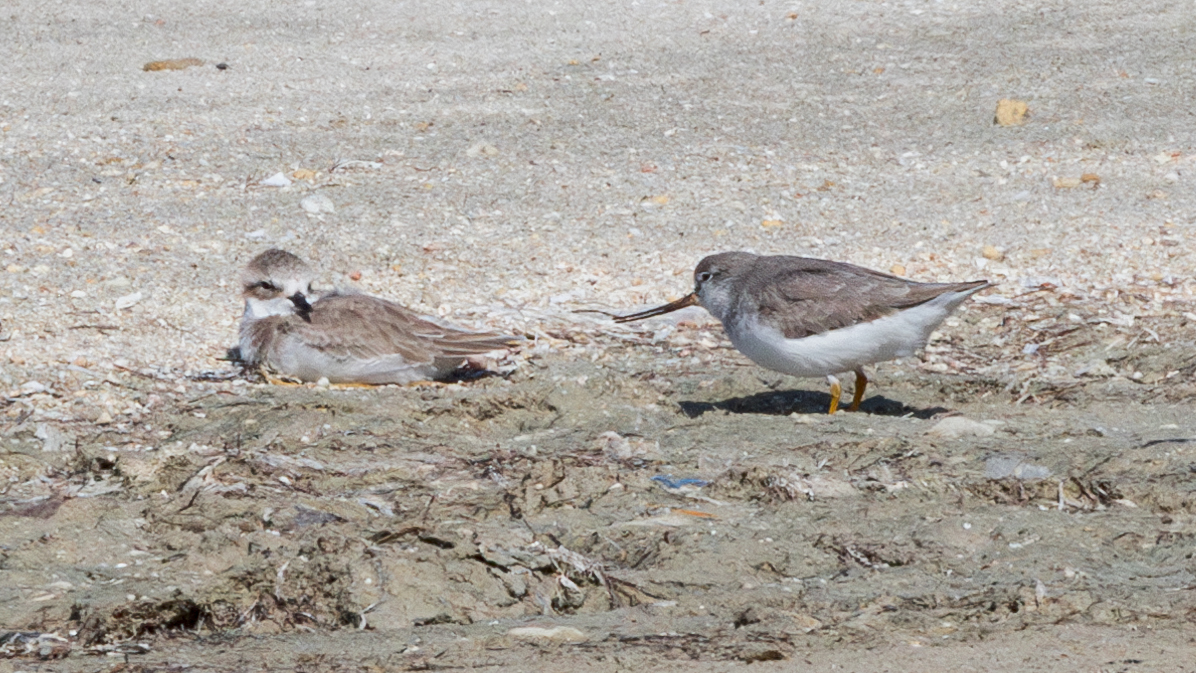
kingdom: Animalia
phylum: Chordata
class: Aves
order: Charadriiformes
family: Scolopacidae
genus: Xenus
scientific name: Xenus cinereus
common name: Terek sandpiper
